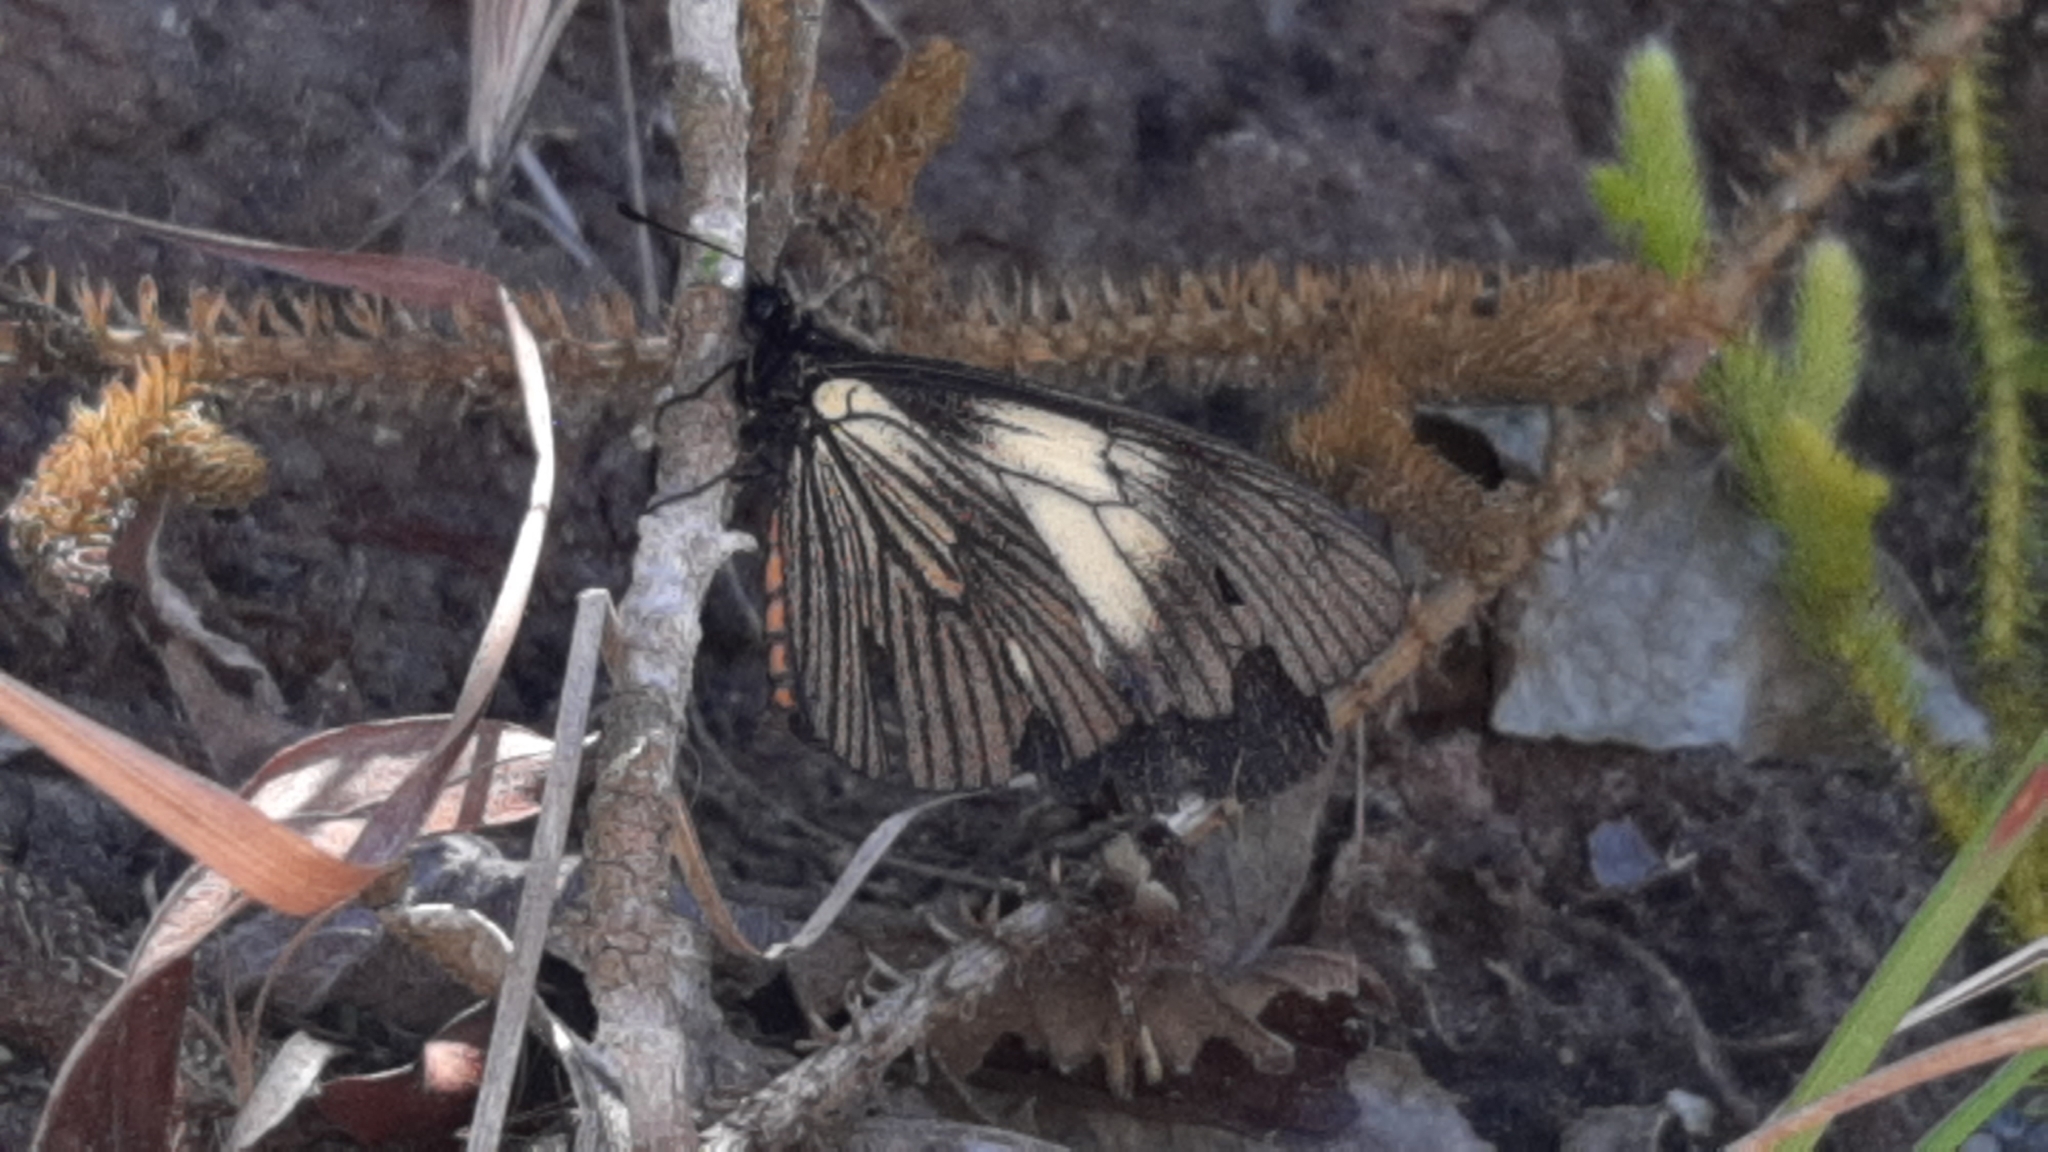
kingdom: Animalia
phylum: Arthropoda
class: Insecta
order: Lepidoptera
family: Nymphalidae
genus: Acraea
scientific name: Acraea Altinote ozomene
